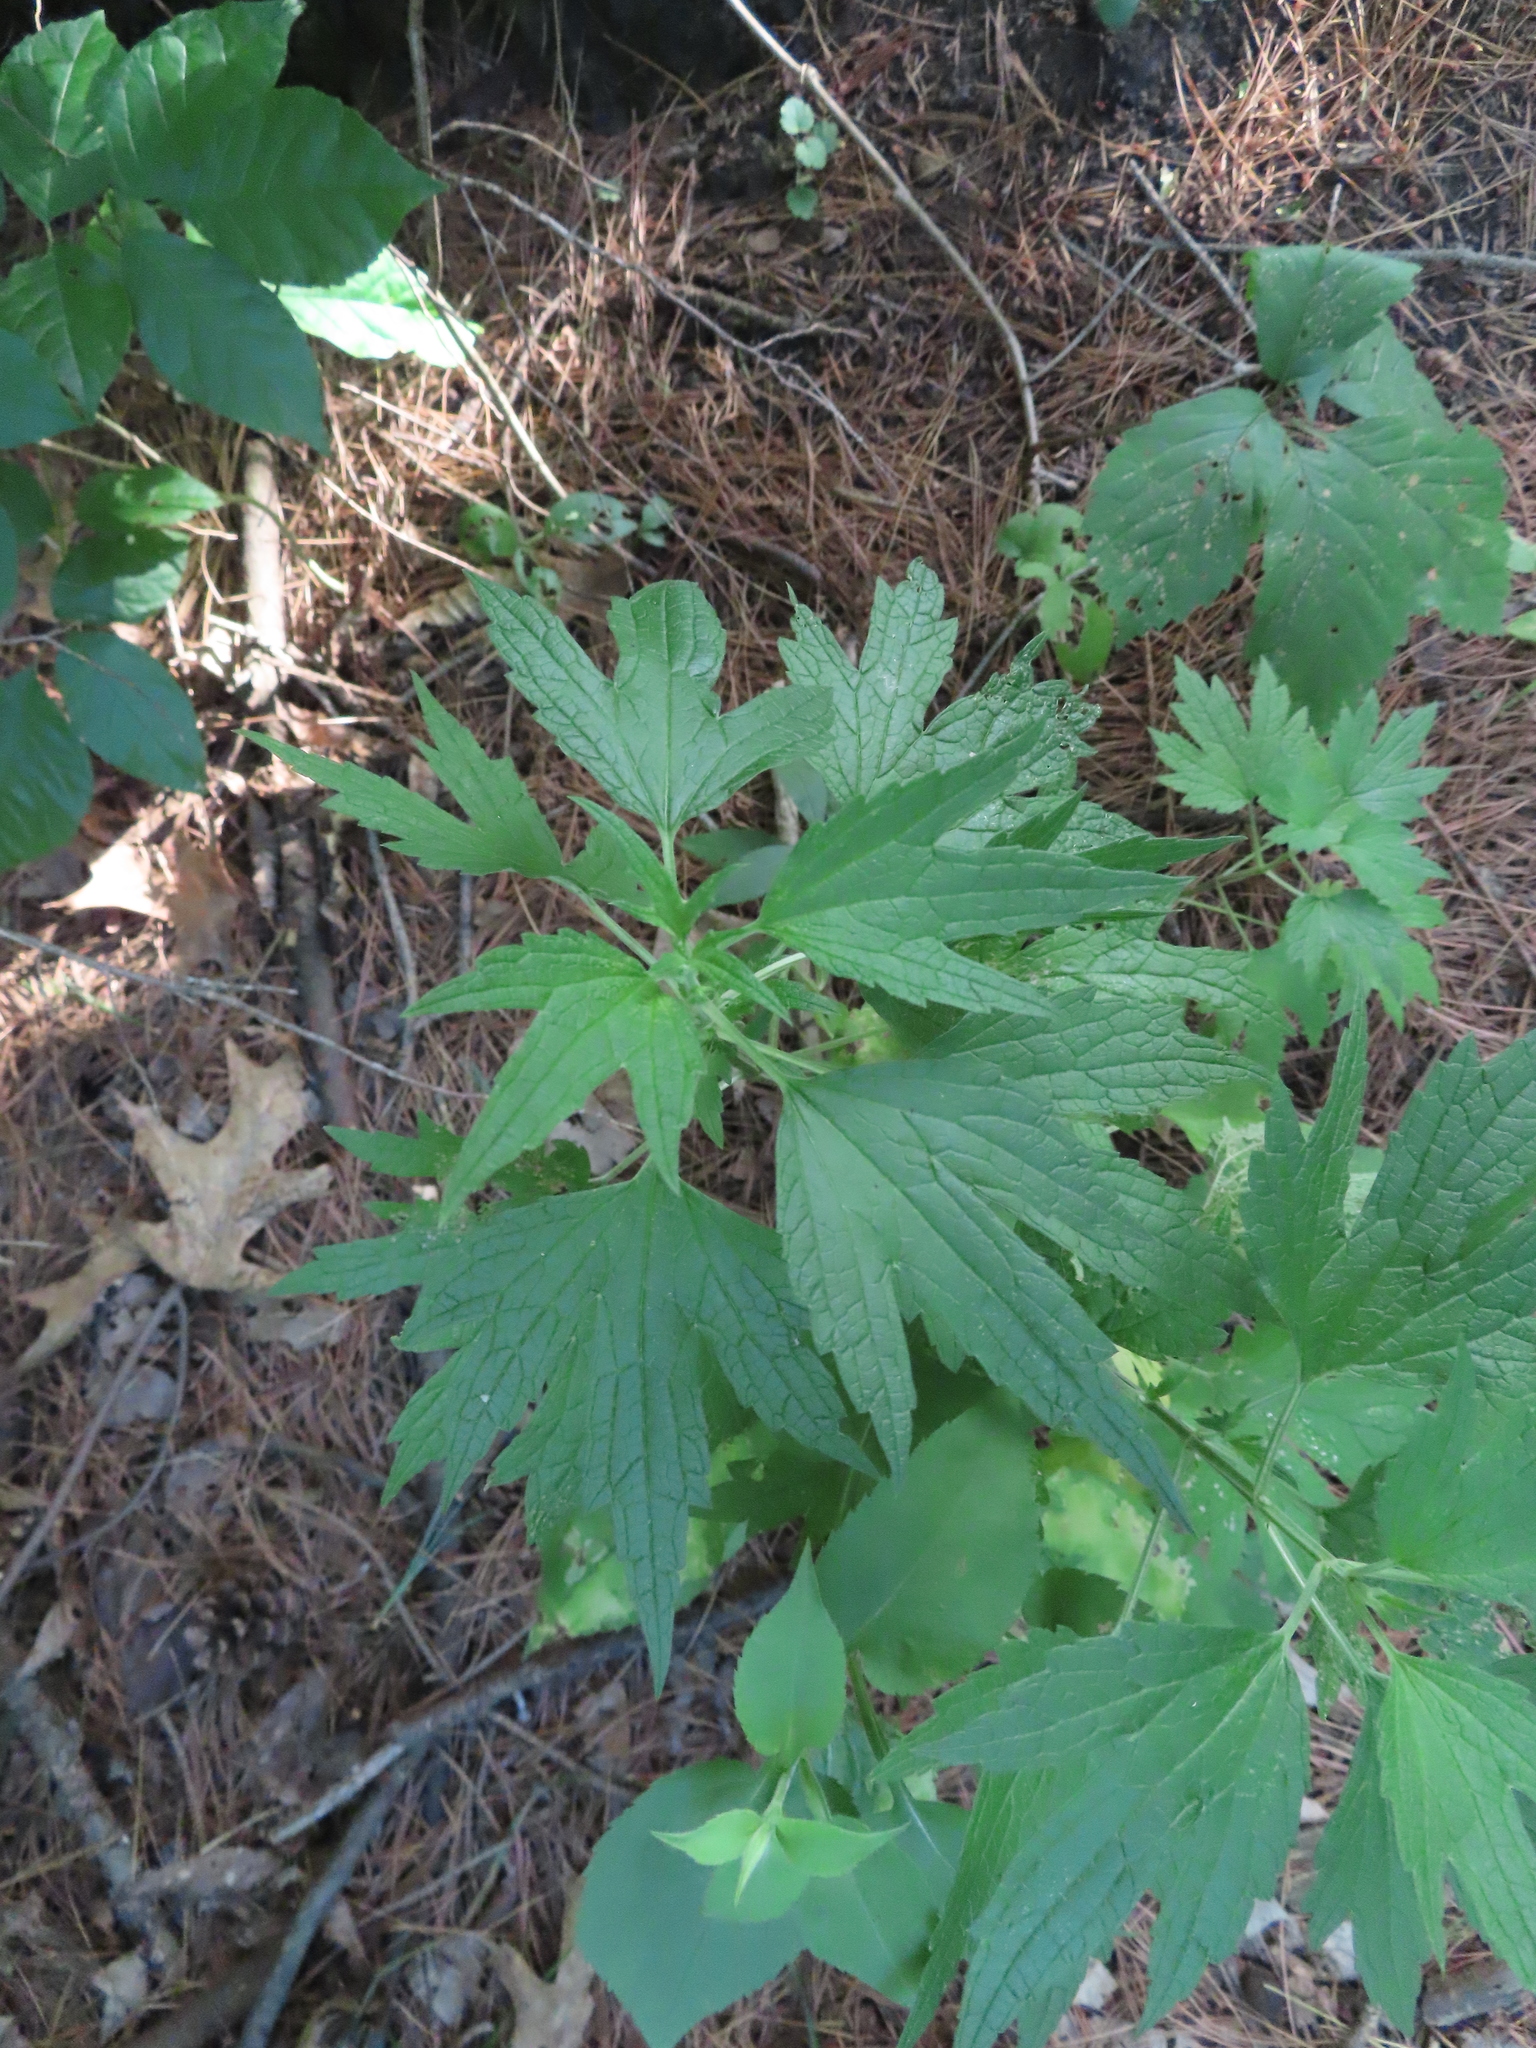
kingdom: Plantae
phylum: Tracheophyta
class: Magnoliopsida
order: Lamiales
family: Lamiaceae
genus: Leonurus
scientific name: Leonurus cardiaca
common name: Motherwort
